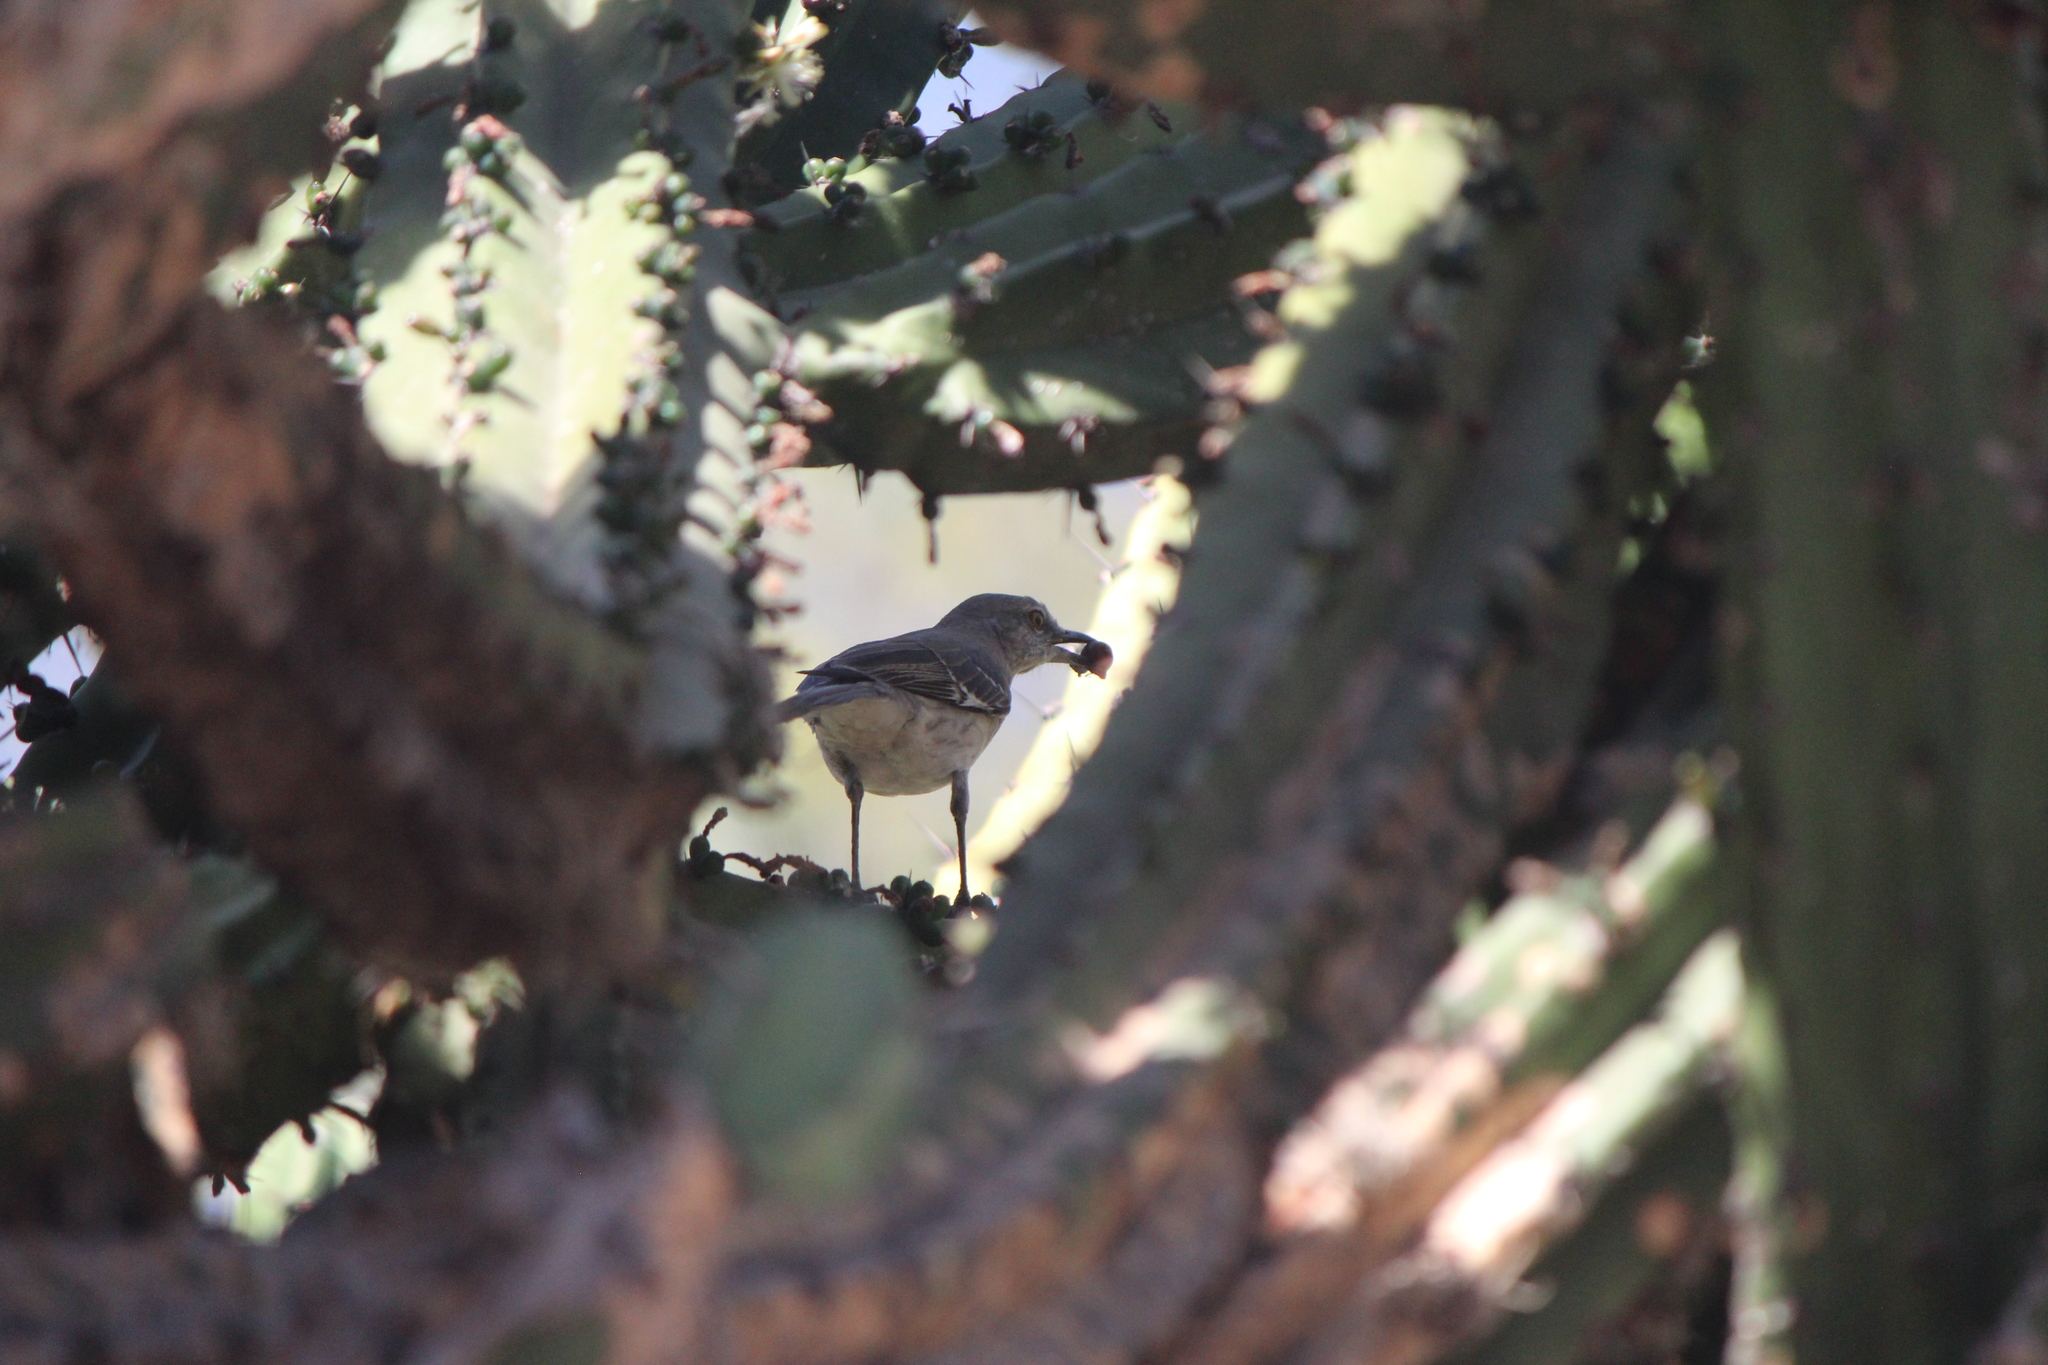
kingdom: Animalia
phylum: Chordata
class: Aves
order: Passeriformes
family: Mimidae
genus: Mimus
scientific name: Mimus polyglottos
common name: Northern mockingbird
